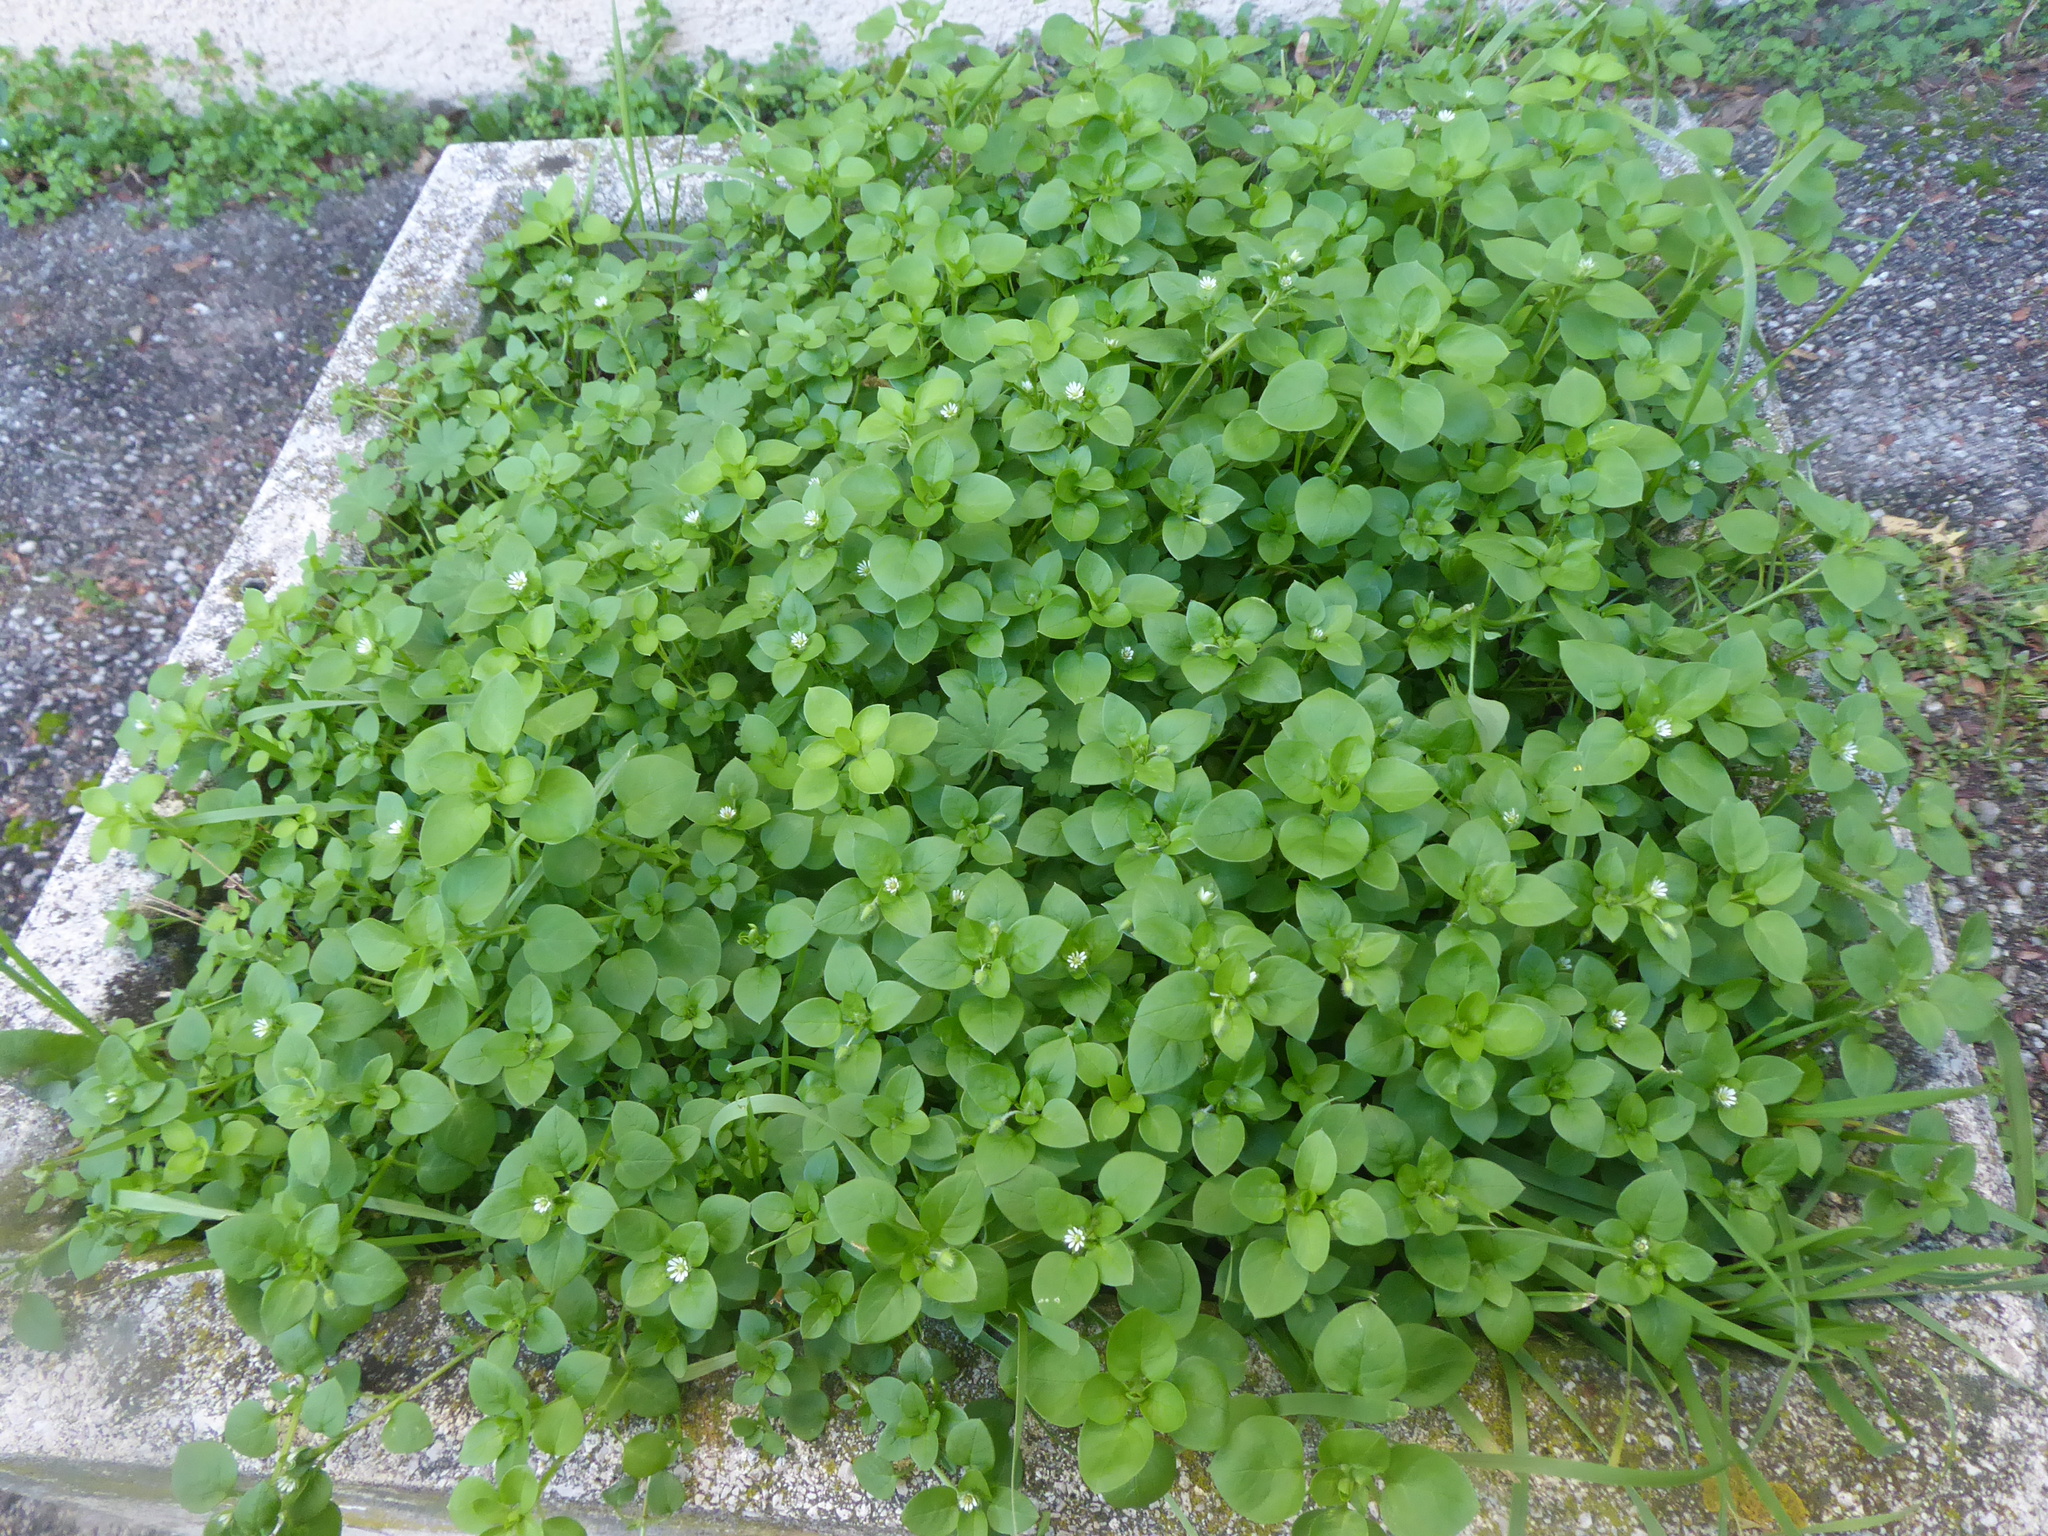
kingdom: Plantae
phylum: Tracheophyta
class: Magnoliopsida
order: Caryophyllales
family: Caryophyllaceae
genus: Stellaria
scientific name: Stellaria media
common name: Common chickweed
